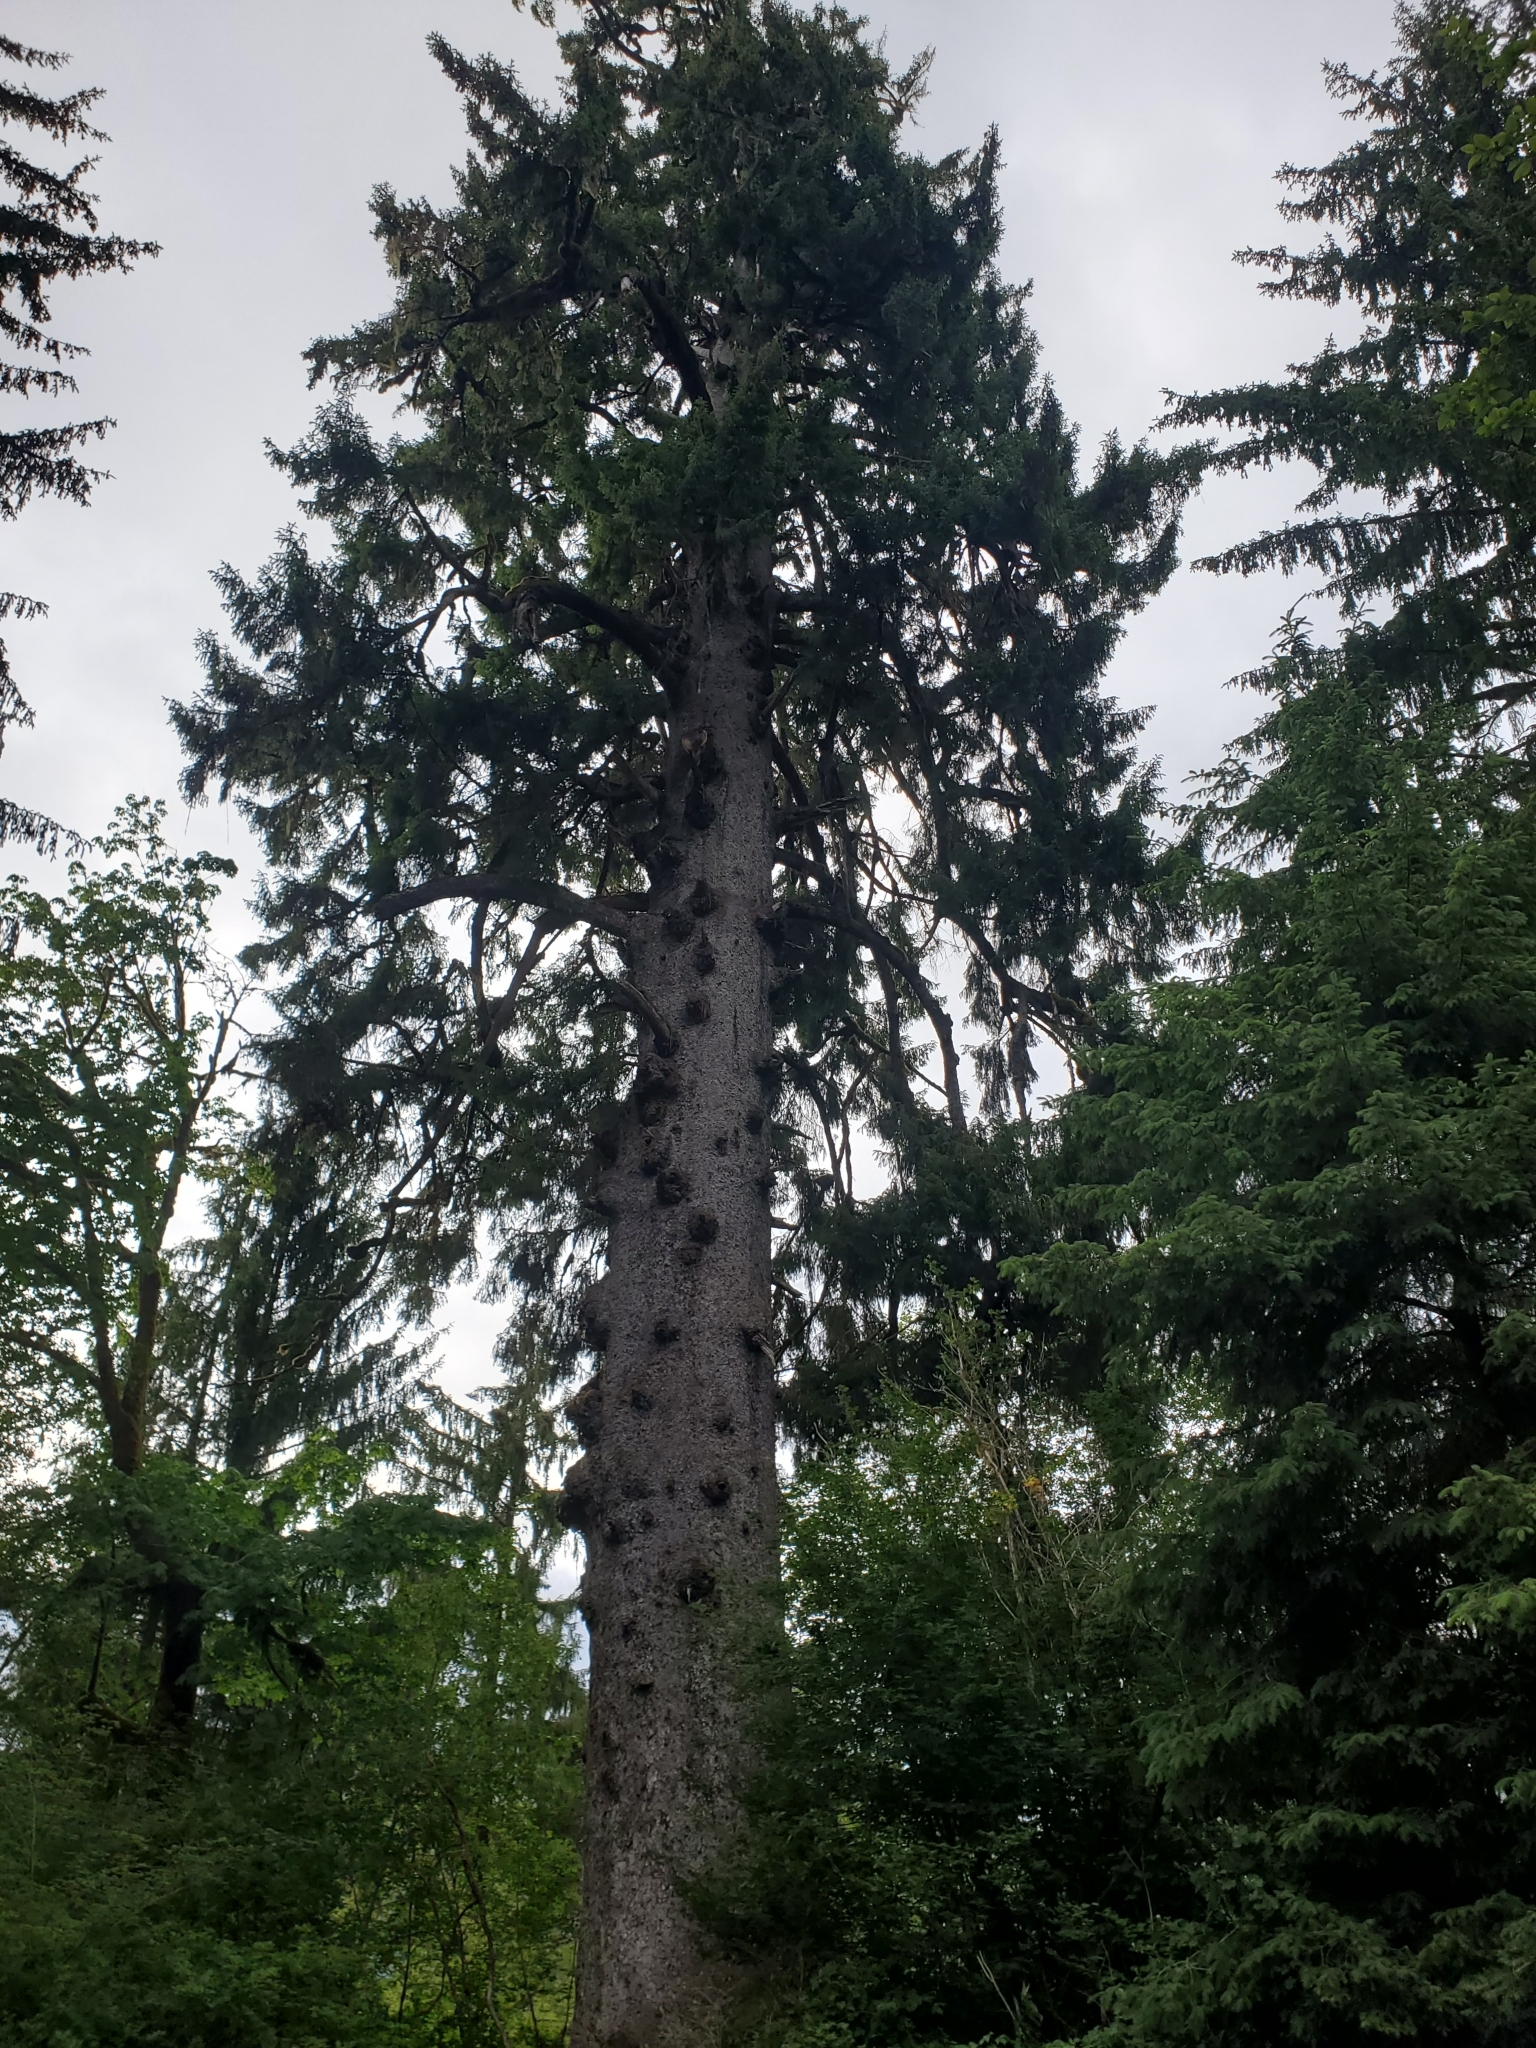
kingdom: Plantae
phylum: Tracheophyta
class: Pinopsida
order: Pinales
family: Pinaceae
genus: Picea
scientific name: Picea sitchensis
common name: Sitka spruce
